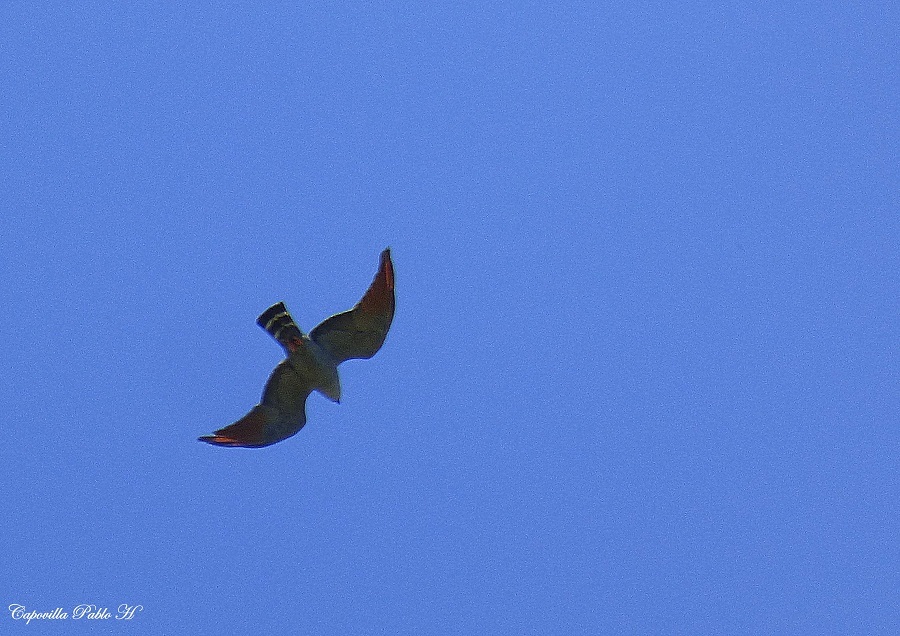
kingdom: Animalia
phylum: Chordata
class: Aves
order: Accipitriformes
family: Accipitridae
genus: Ictinia
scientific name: Ictinia plumbea
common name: Plumbeous kite
